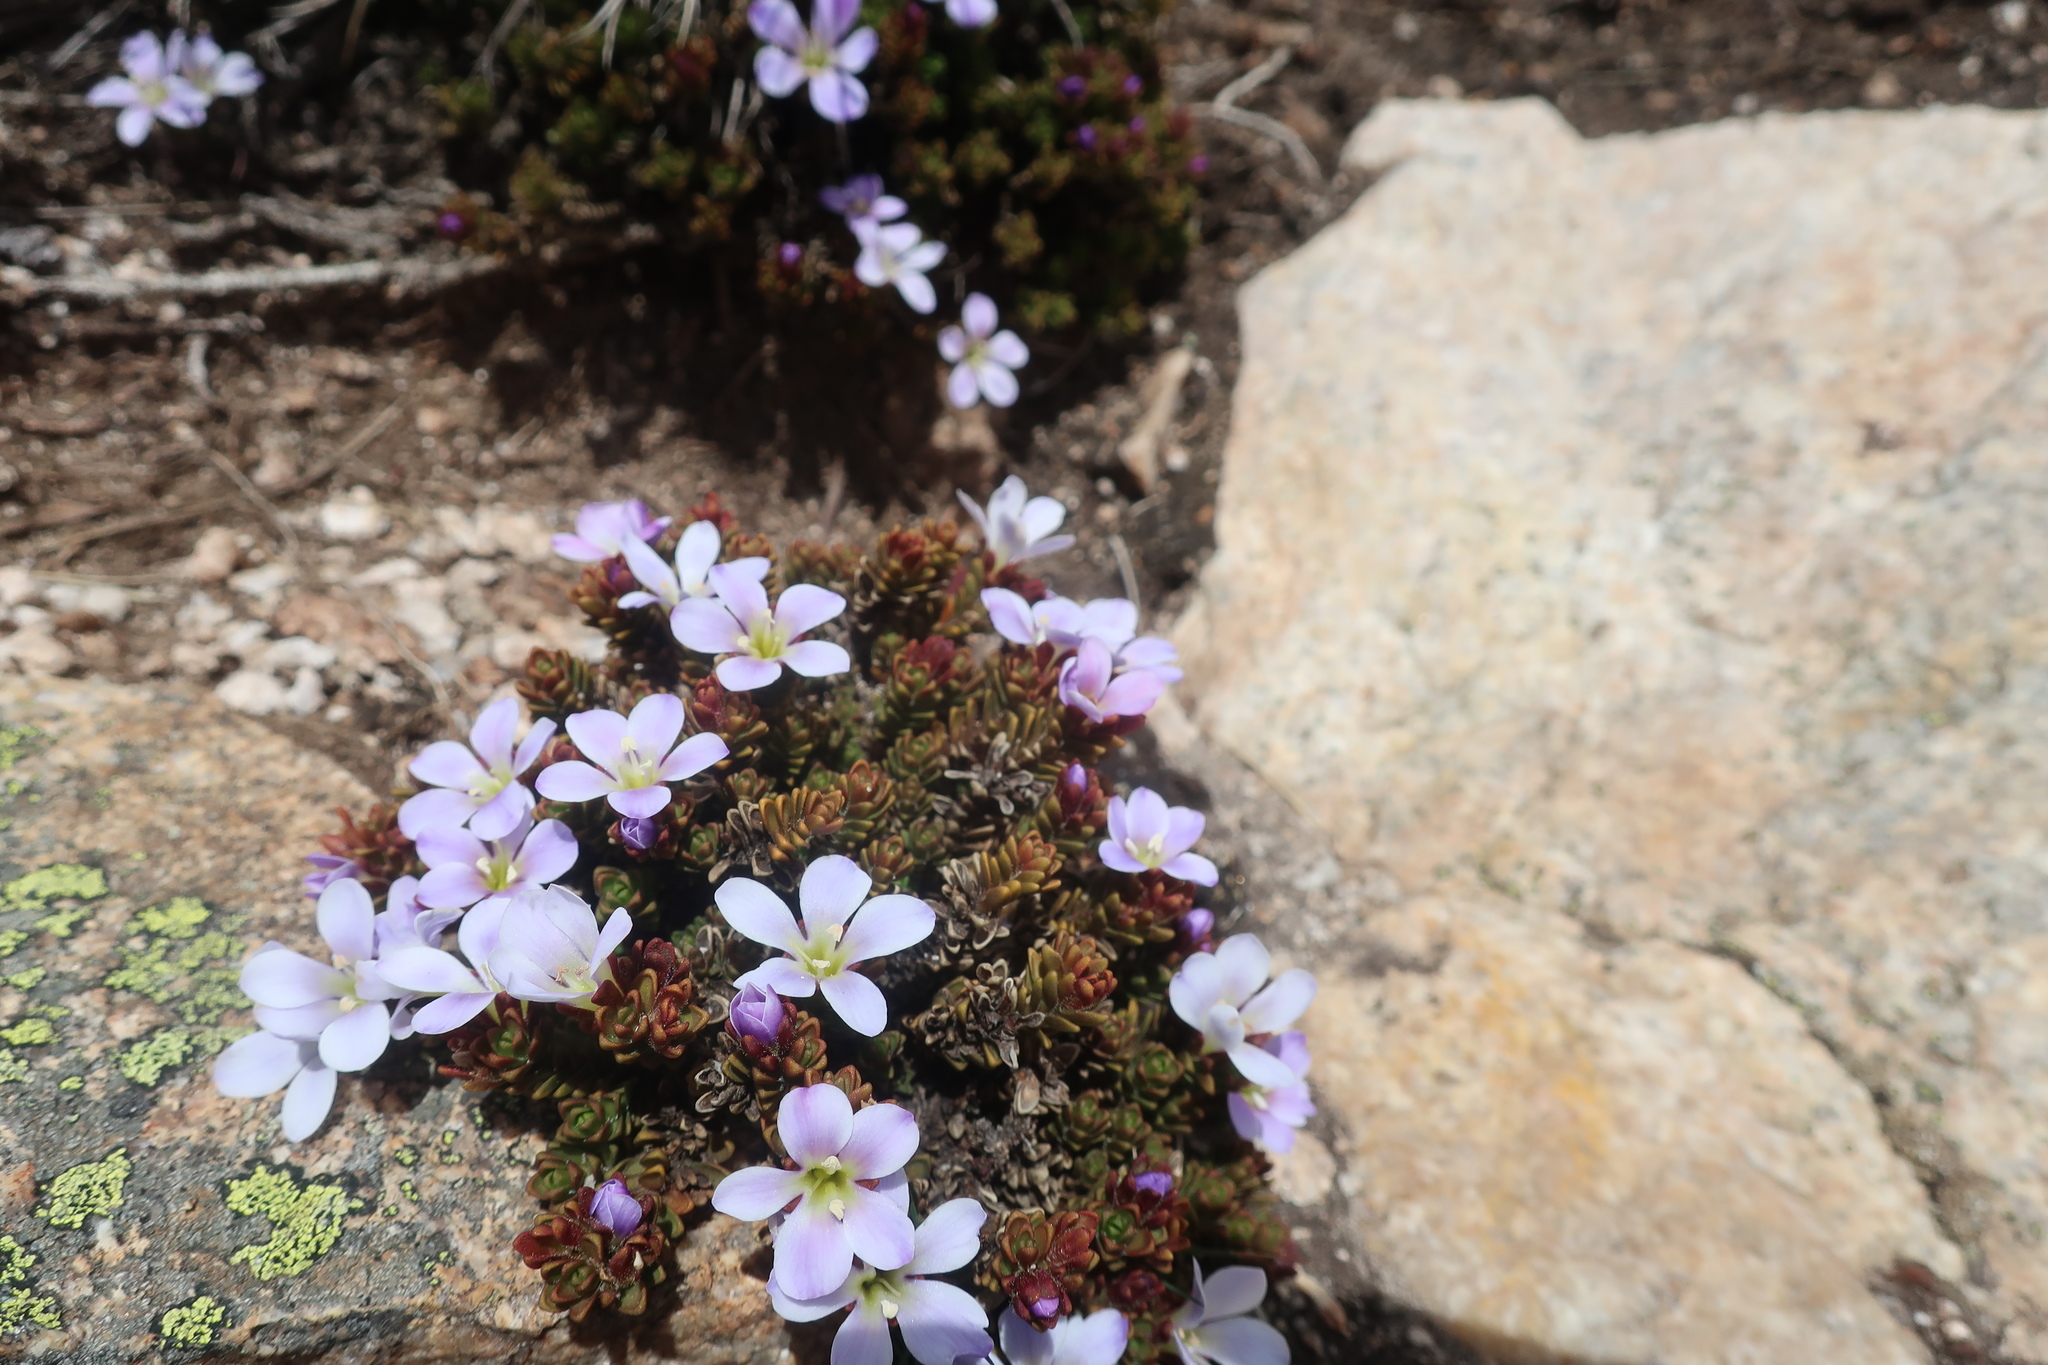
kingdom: Plantae
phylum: Tracheophyta
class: Magnoliopsida
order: Lamiales
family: Plantaginaceae
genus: Veronica
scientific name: Veronica densifolia
